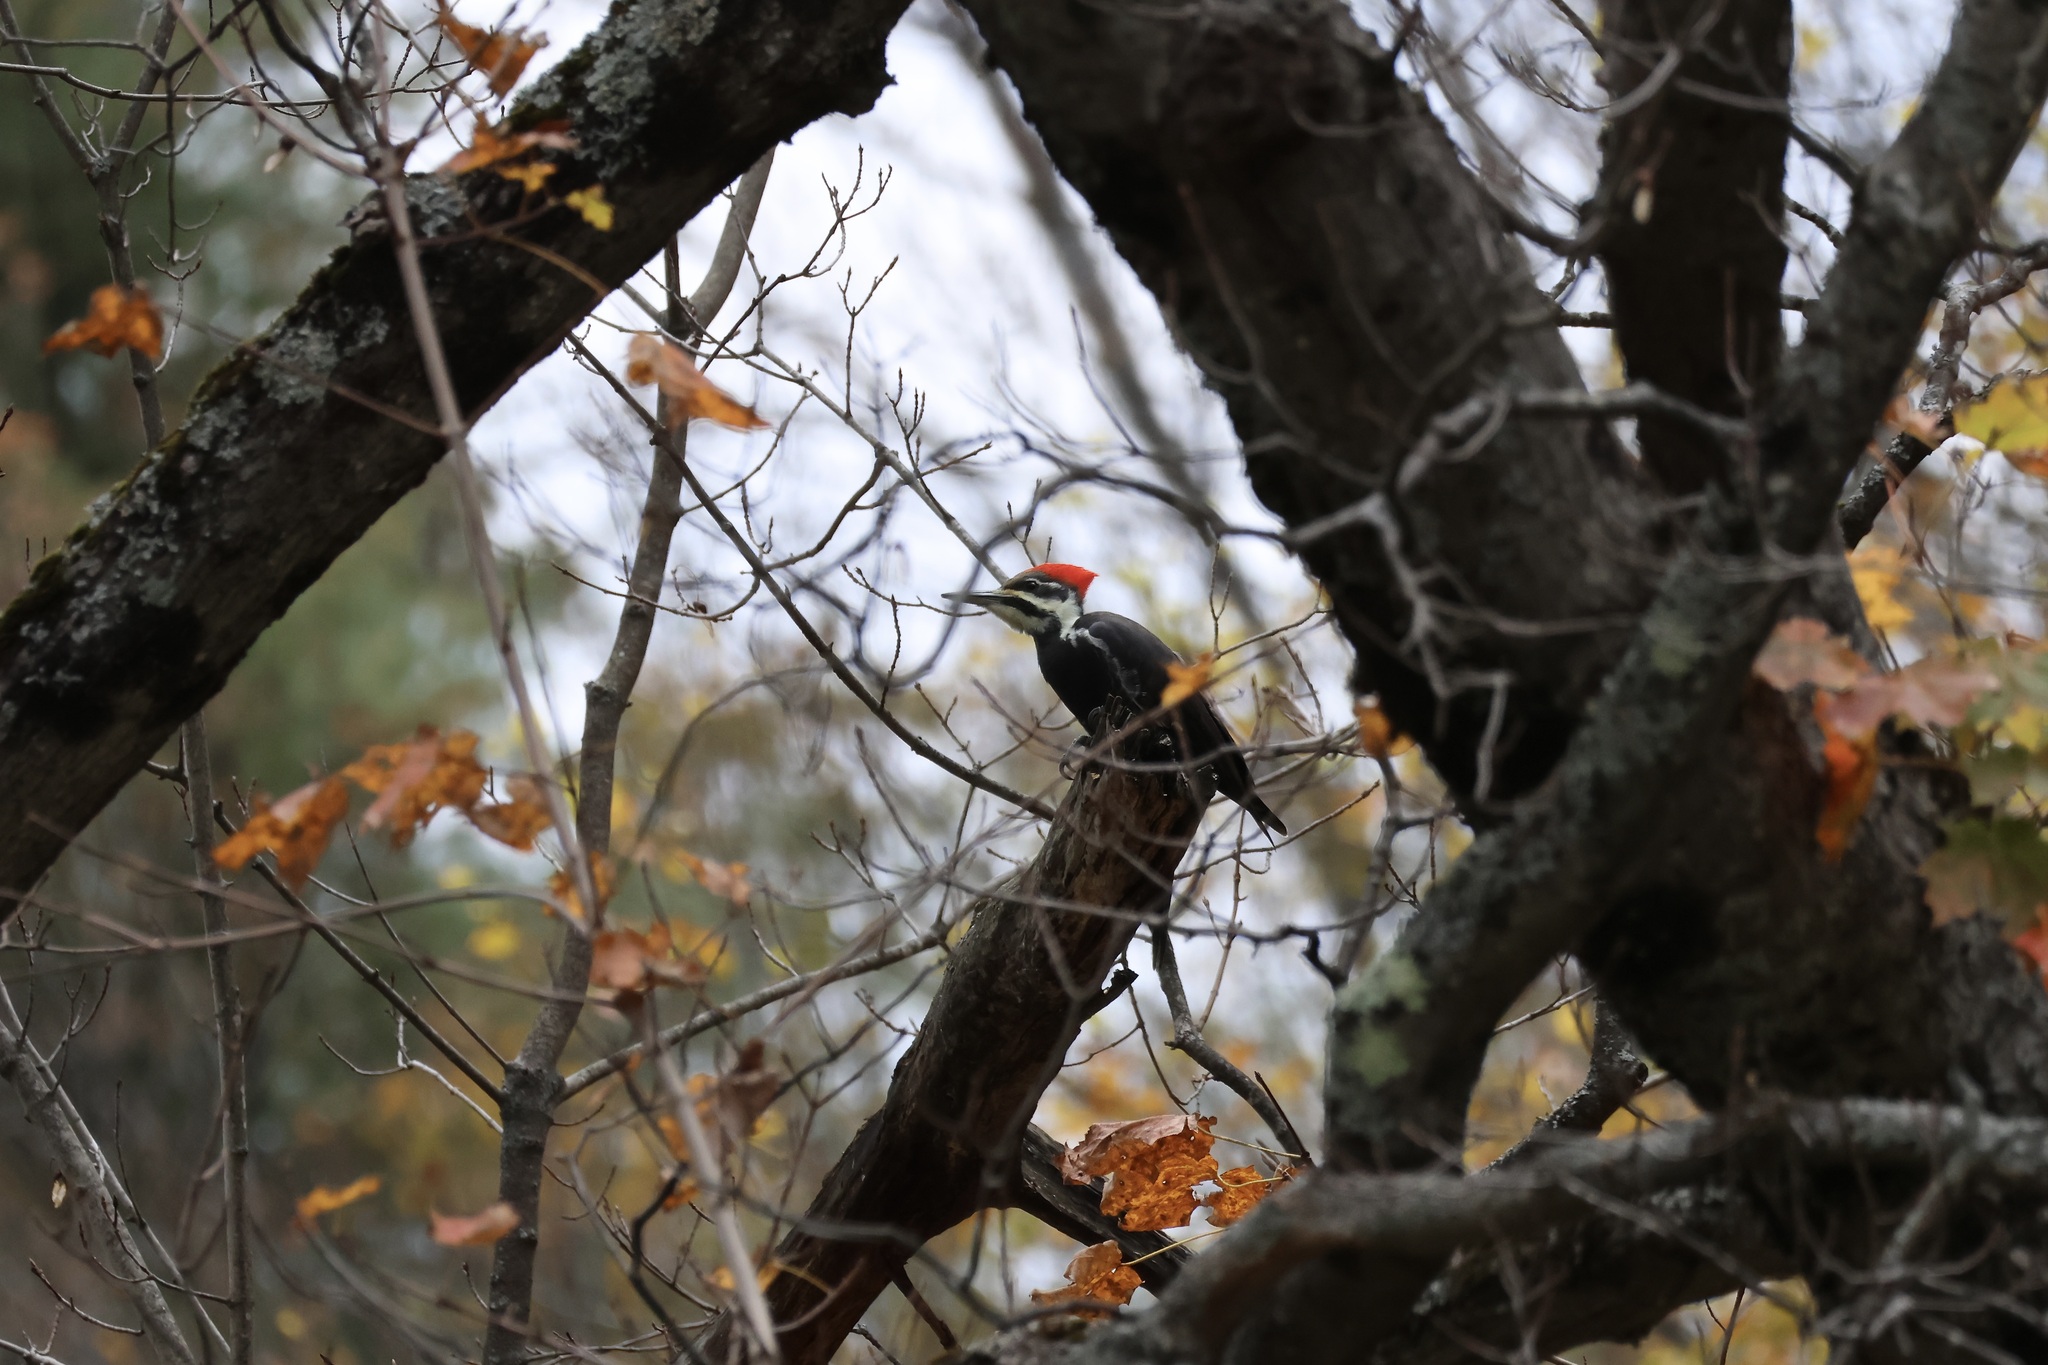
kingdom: Animalia
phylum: Chordata
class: Aves
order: Piciformes
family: Picidae
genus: Dryocopus
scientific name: Dryocopus pileatus
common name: Pileated woodpecker
